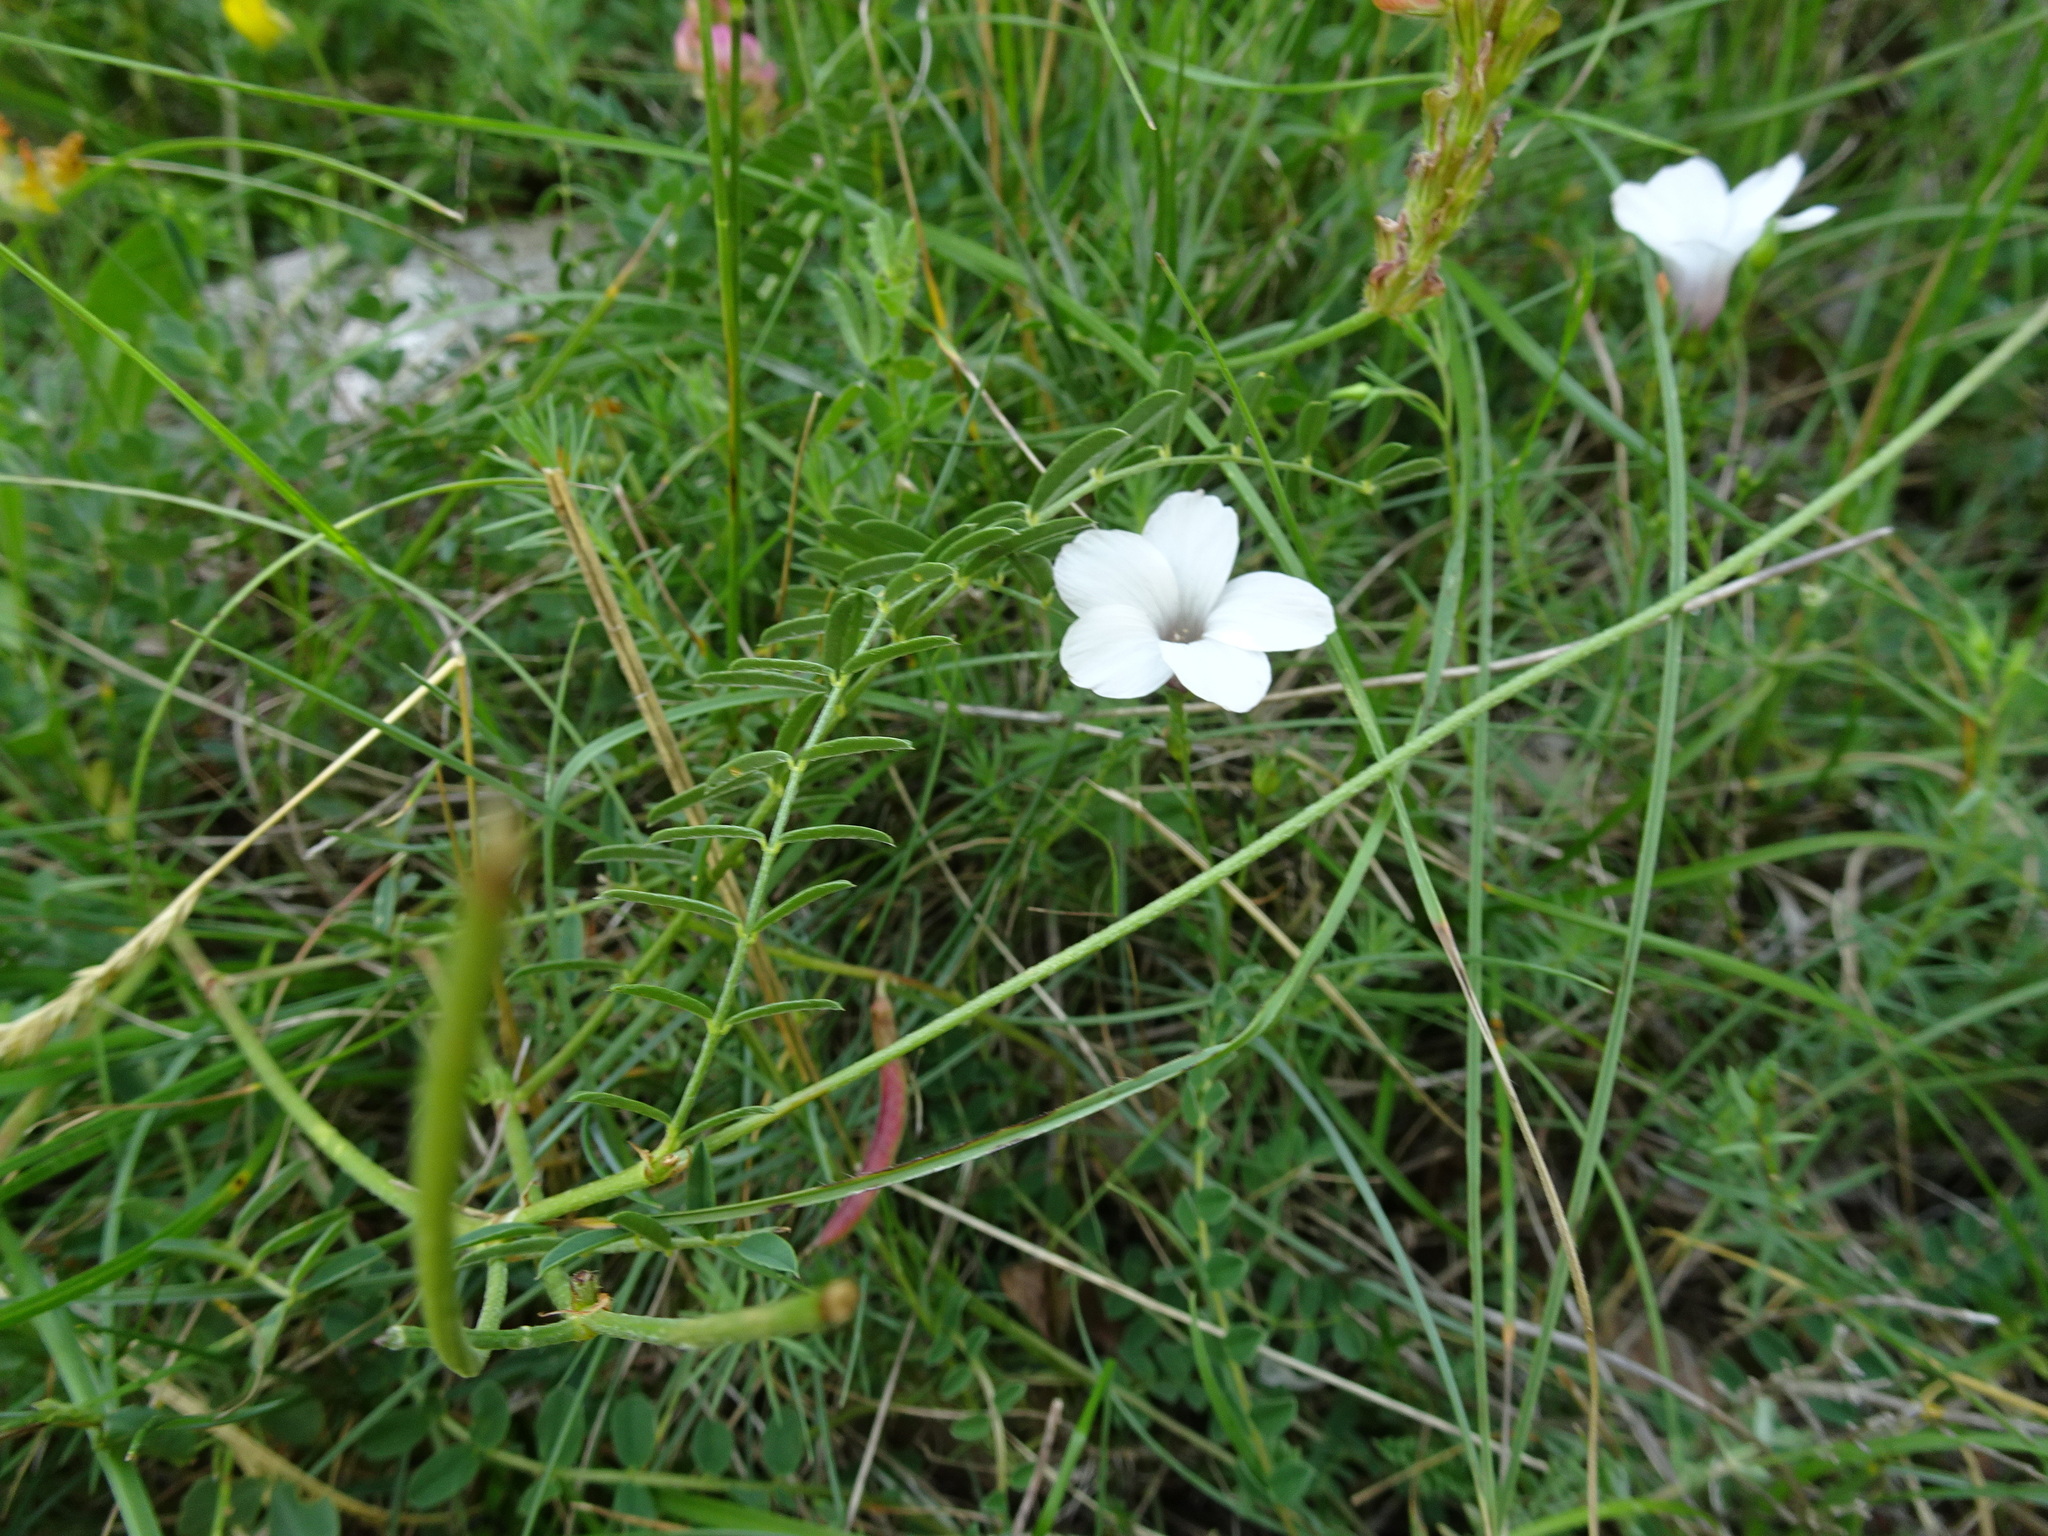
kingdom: Plantae
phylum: Tracheophyta
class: Magnoliopsida
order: Fabales
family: Fabaceae
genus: Onobrychis
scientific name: Onobrychis supina
